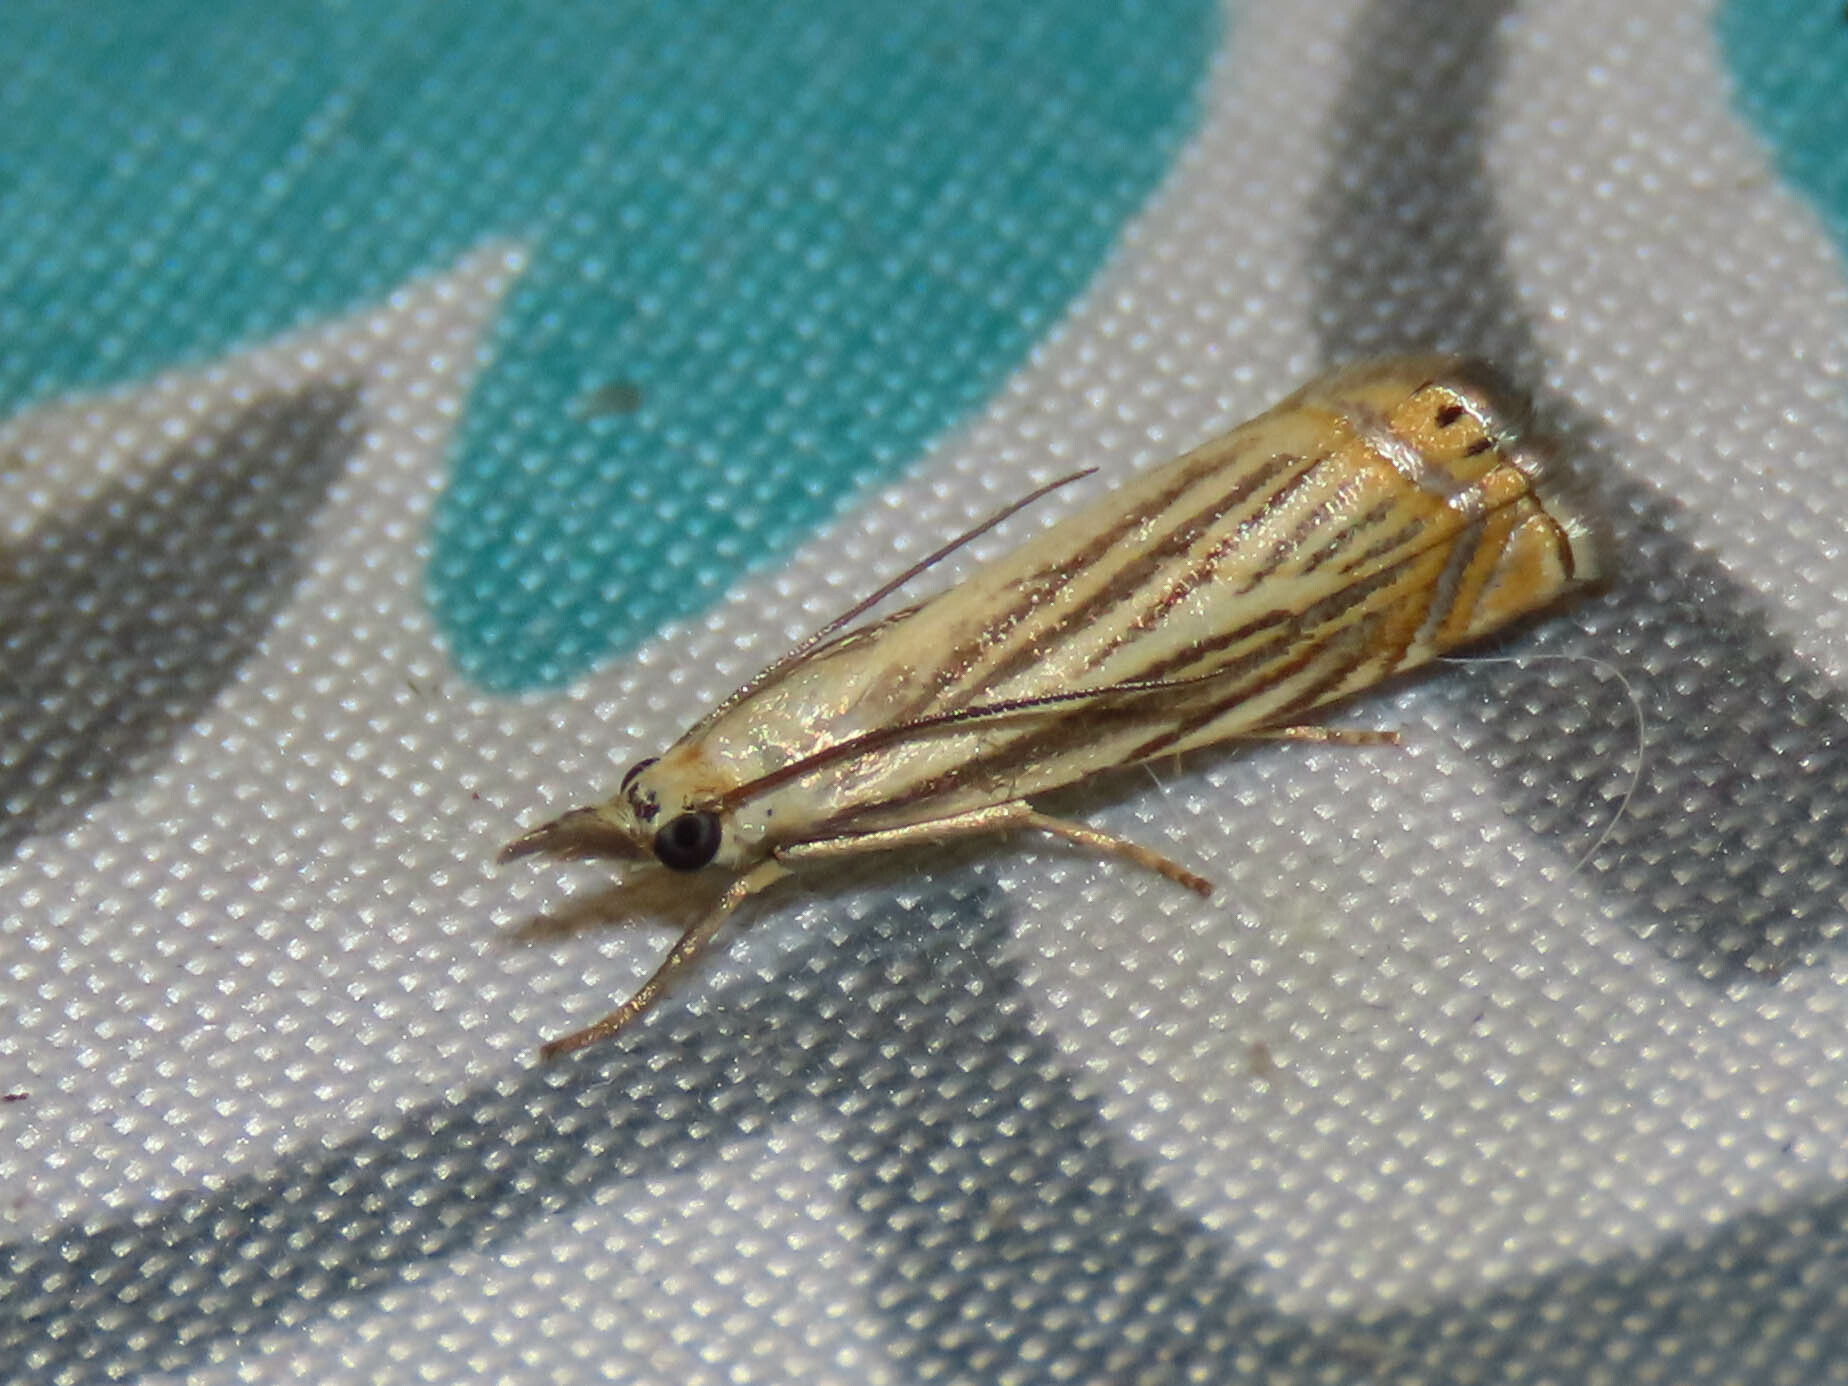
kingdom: Animalia
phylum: Arthropoda
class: Insecta
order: Lepidoptera
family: Crambidae
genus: Chrysoteuchia
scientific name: Chrysoteuchia topiarius
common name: Topiary grass-veneer
